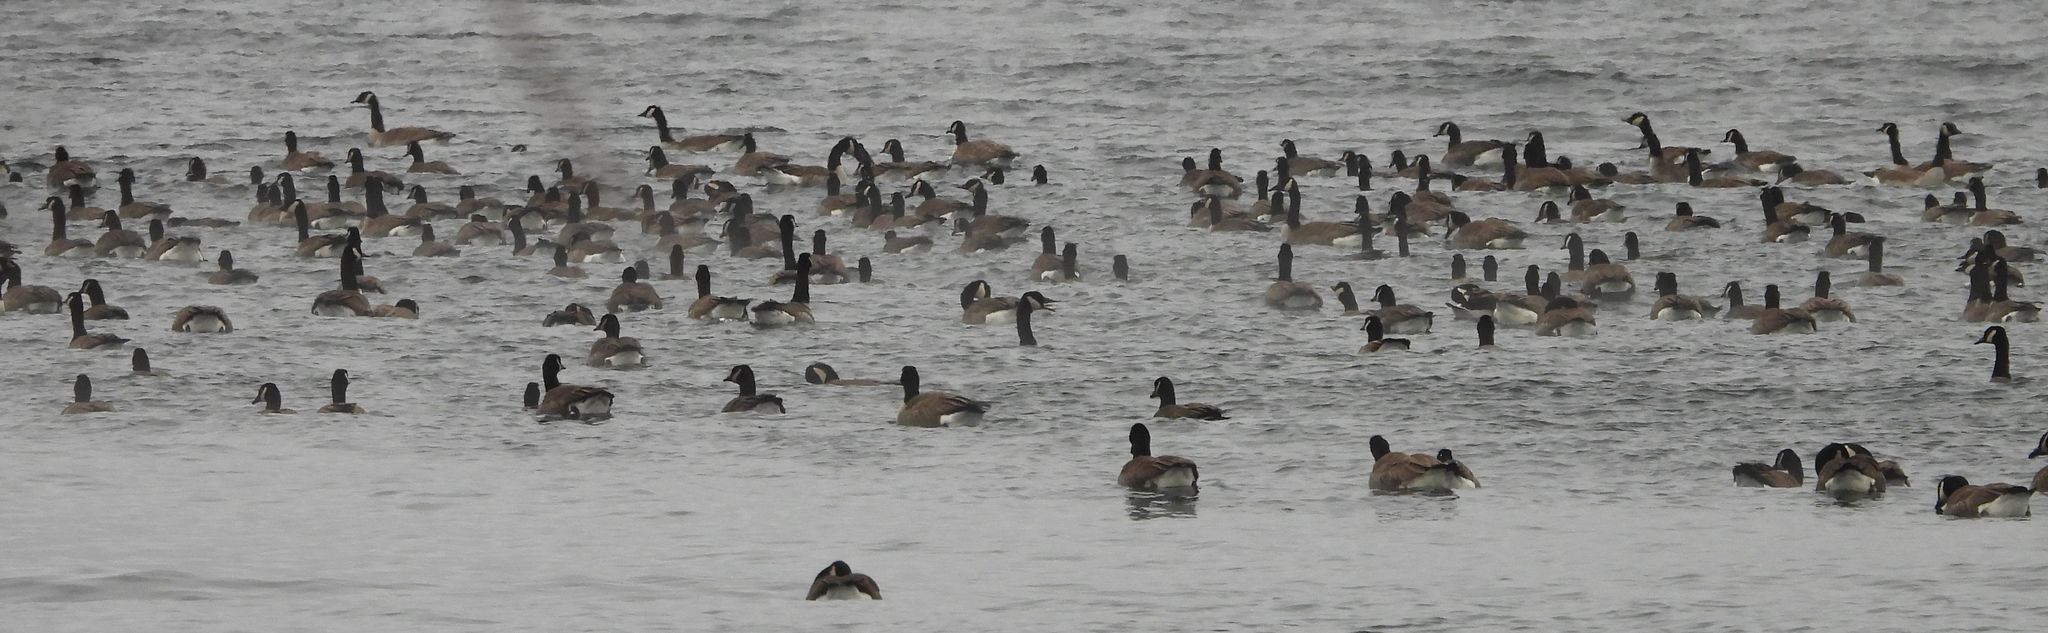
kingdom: Animalia
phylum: Chordata
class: Aves
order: Anseriformes
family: Anatidae
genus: Branta
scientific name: Branta canadensis
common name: Canada goose
